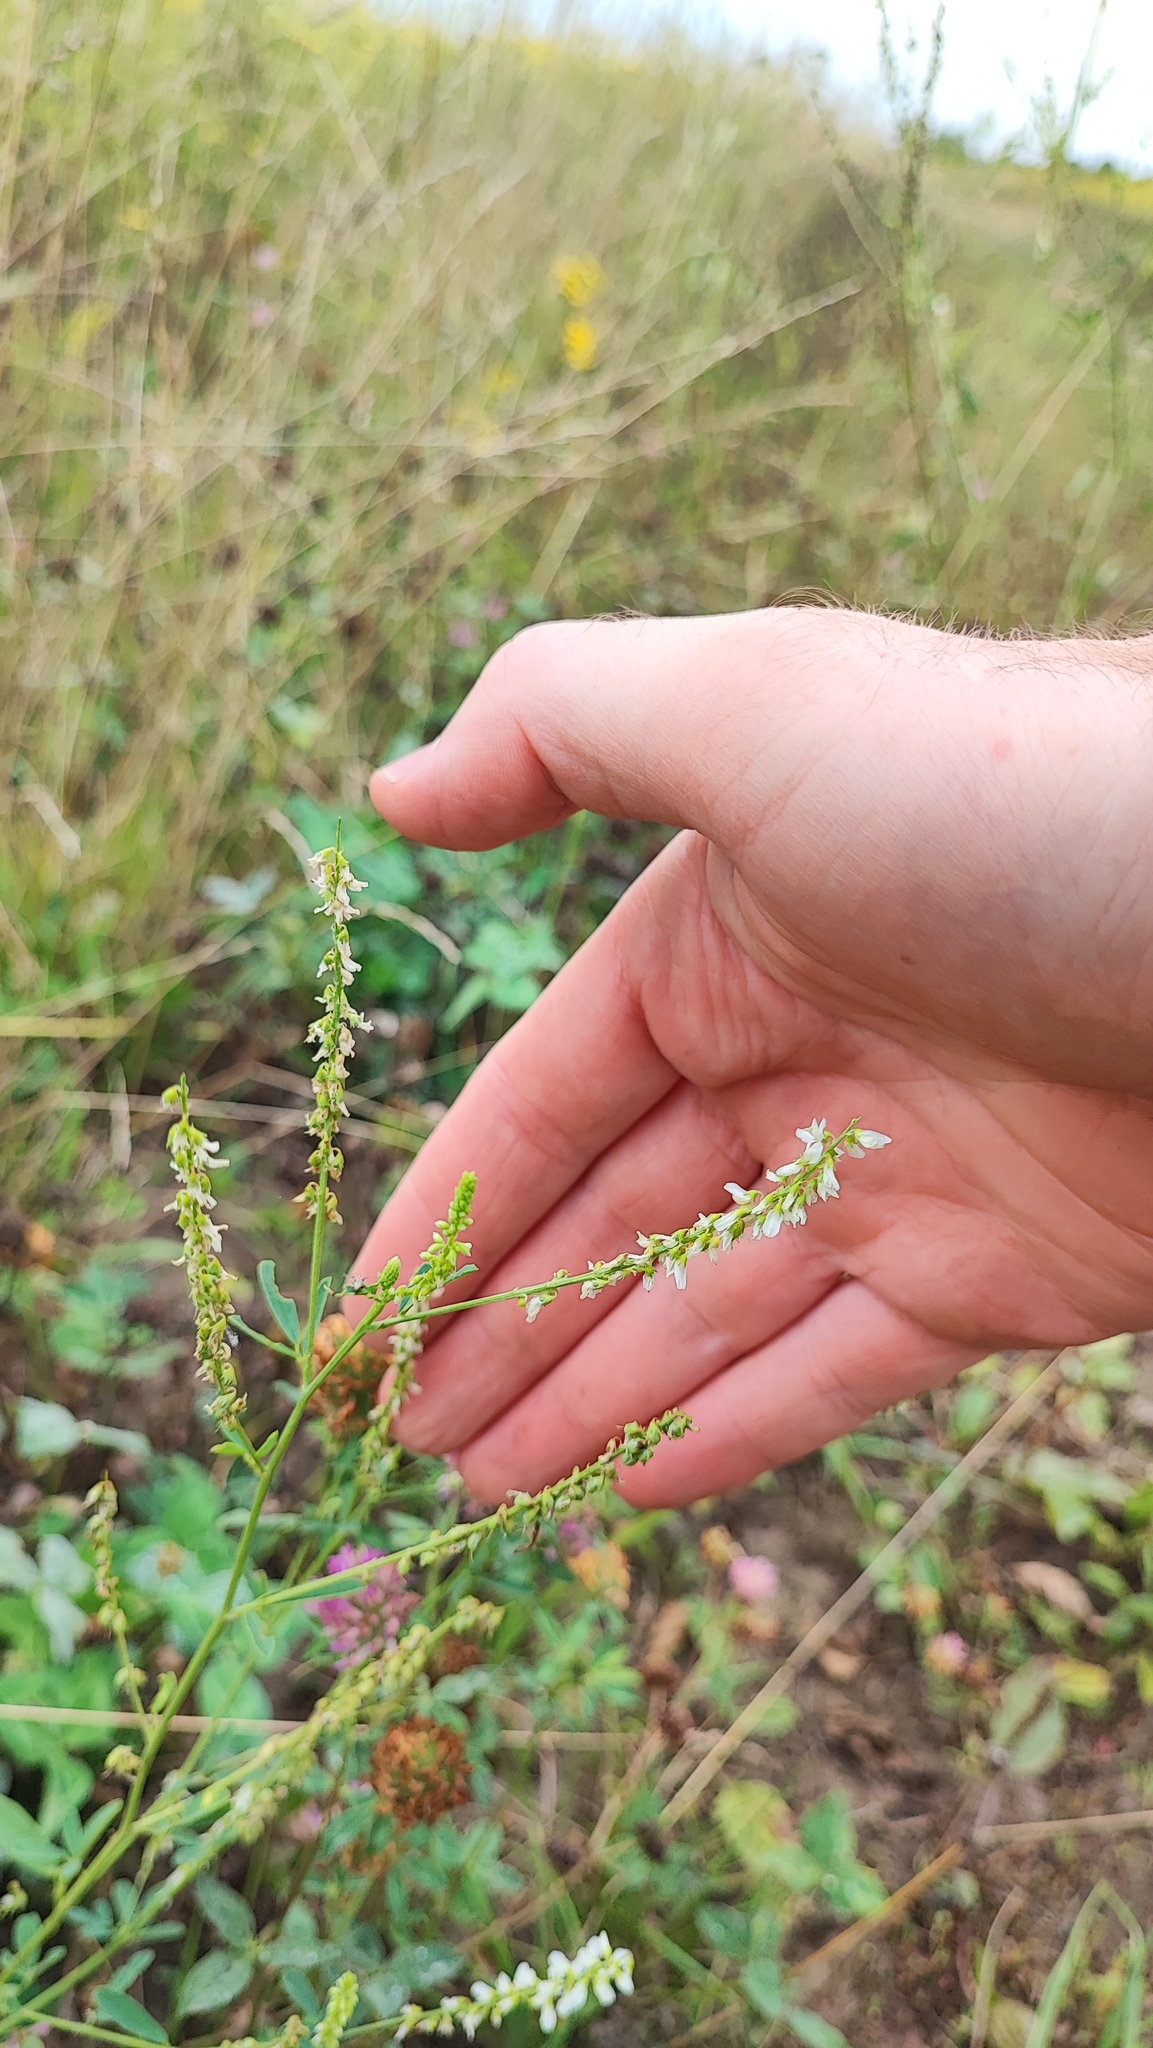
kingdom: Plantae
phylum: Tracheophyta
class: Magnoliopsida
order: Fabales
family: Fabaceae
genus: Melilotus
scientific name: Melilotus albus
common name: White melilot
